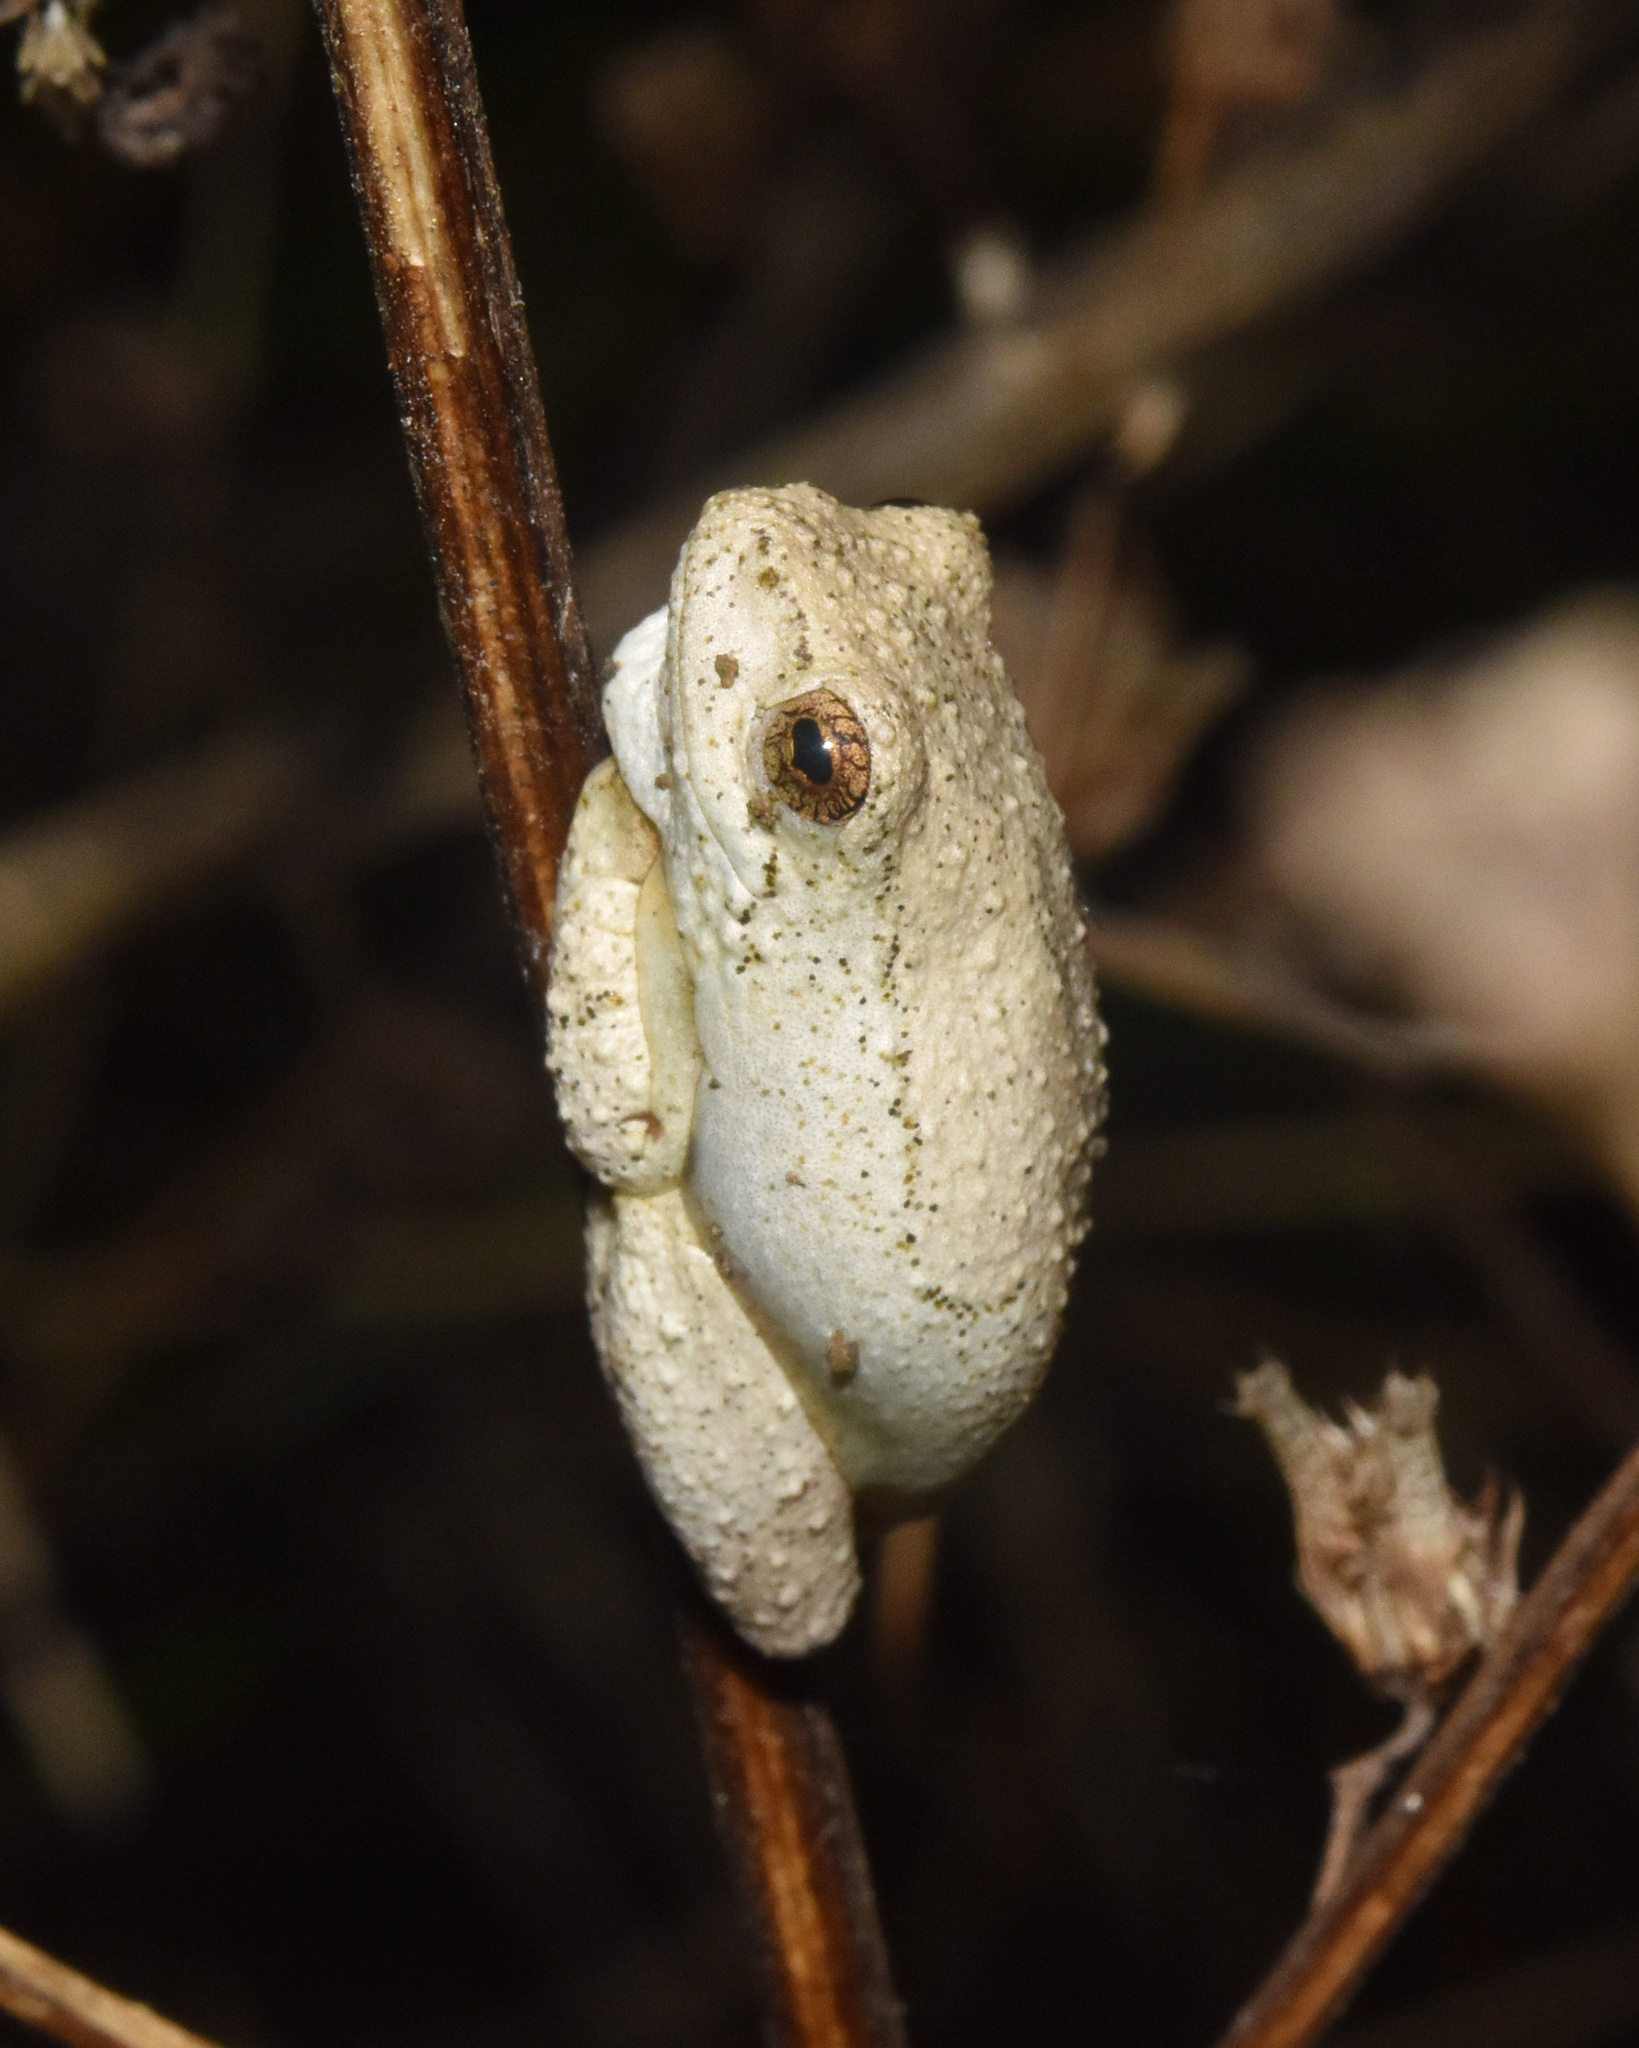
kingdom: Animalia
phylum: Chordata
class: Amphibia
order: Anura
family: Hyperoliidae
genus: Hyperolius
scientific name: Hyperolius marmoratus
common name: Painted reed frog
